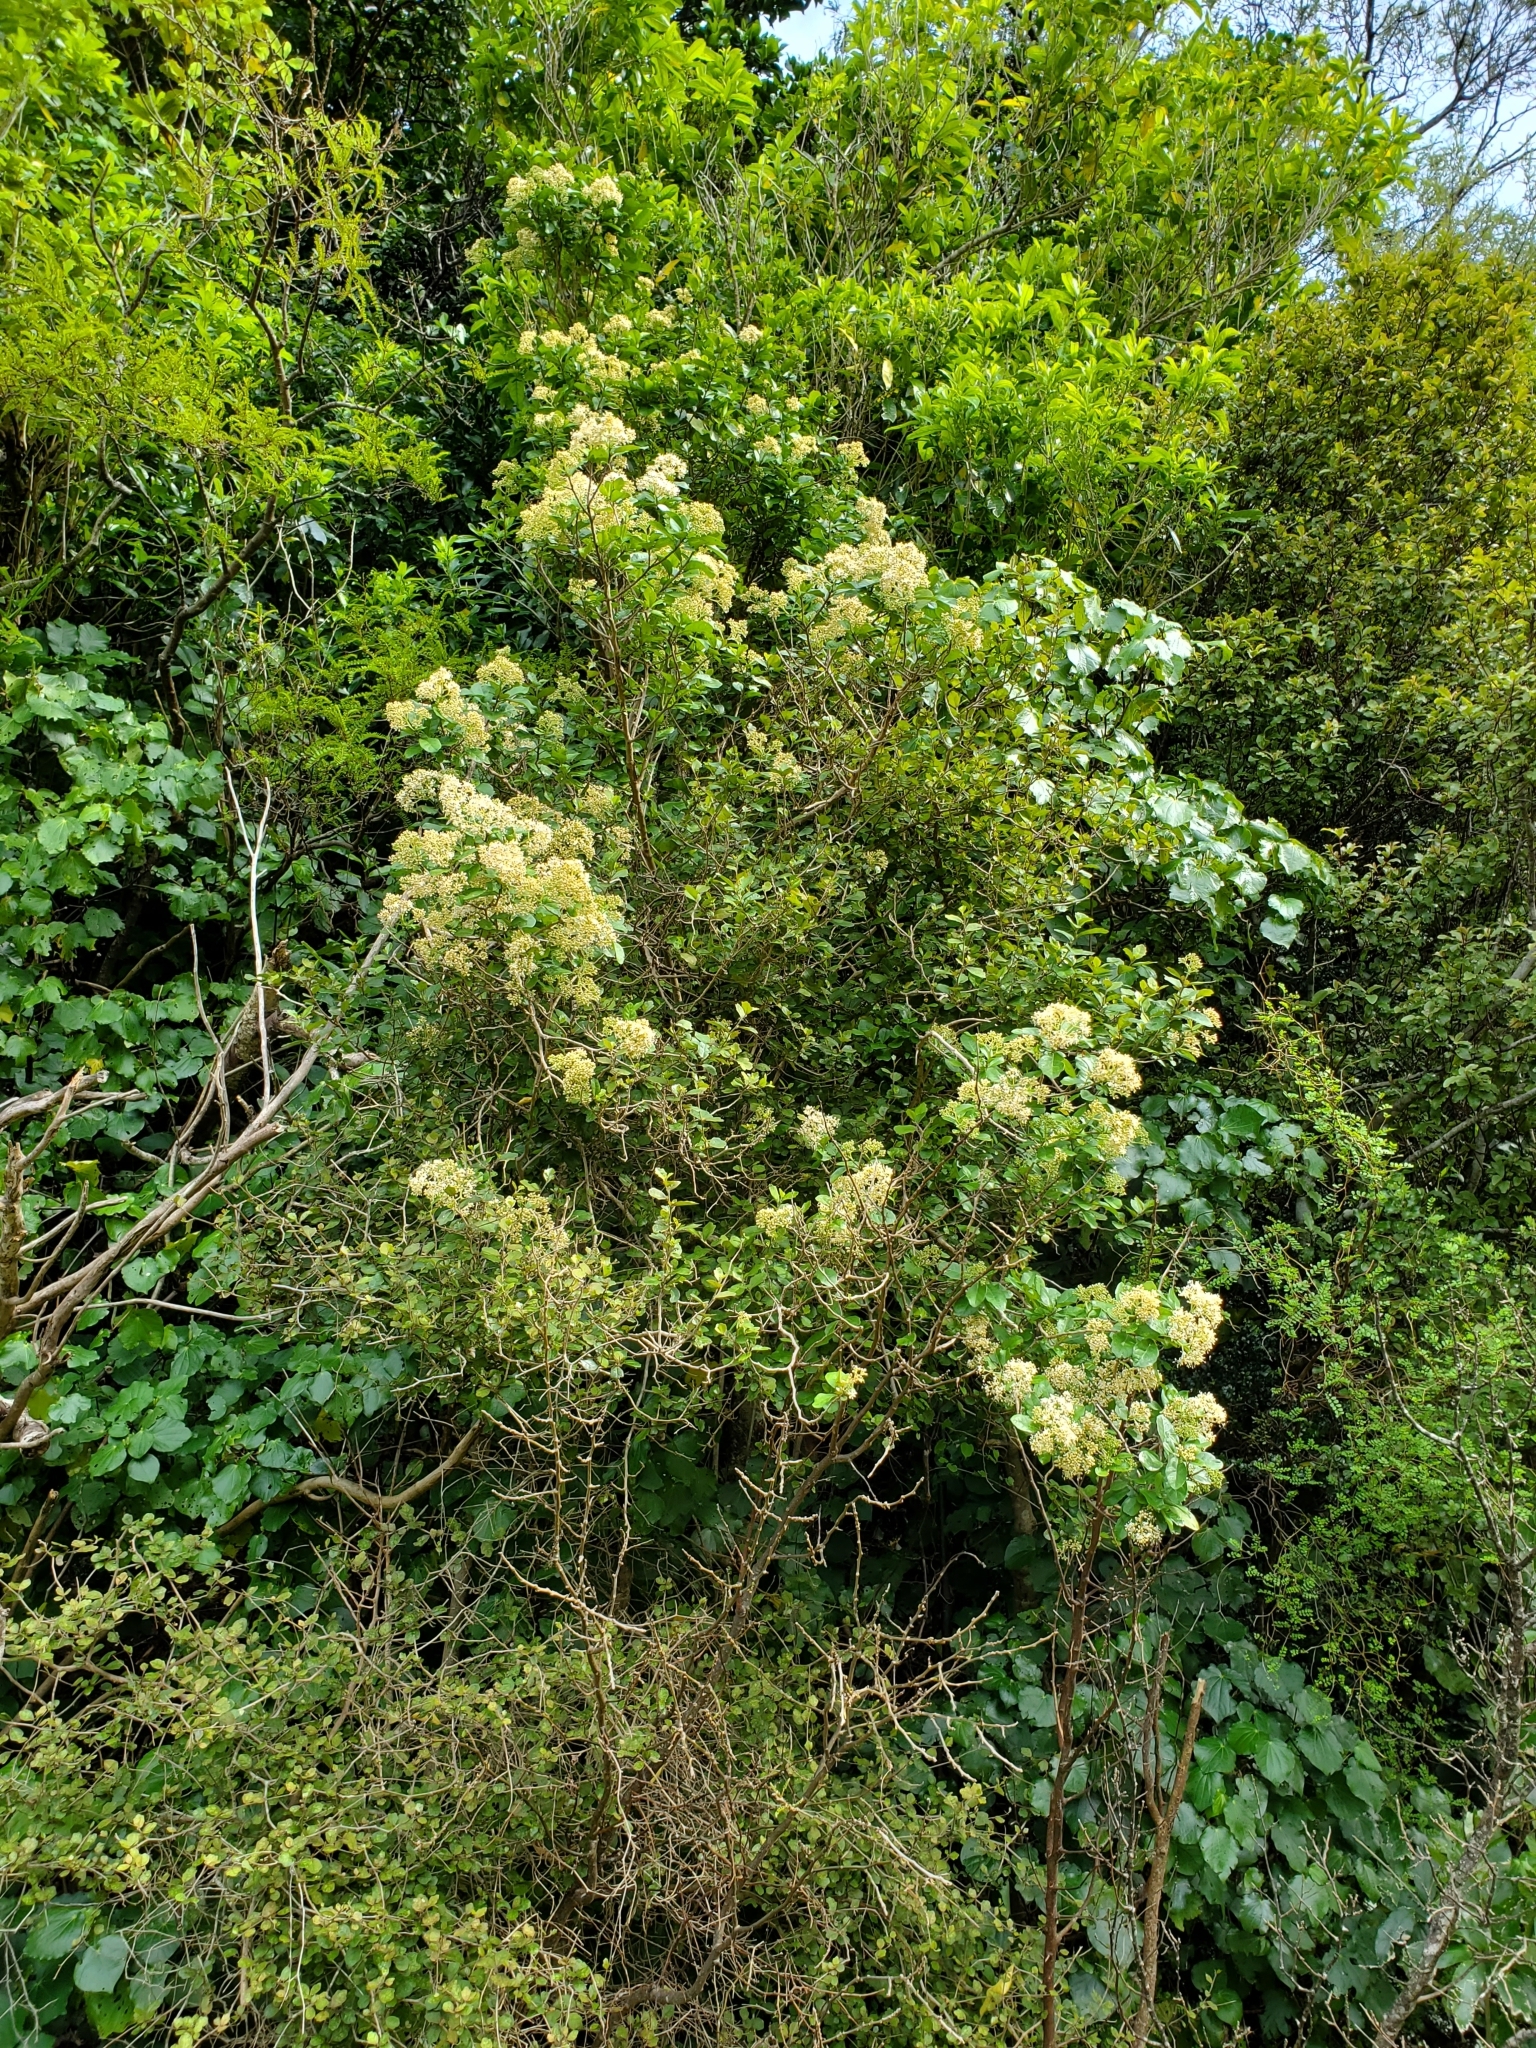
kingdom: Plantae
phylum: Tracheophyta
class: Magnoliopsida
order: Asterales
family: Asteraceae
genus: Olearia
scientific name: Olearia paniculata
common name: Akiraho
